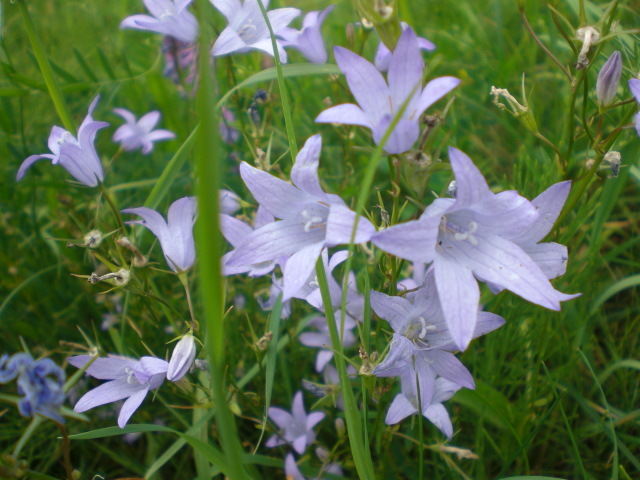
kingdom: Plantae
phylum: Tracheophyta
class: Magnoliopsida
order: Asterales
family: Campanulaceae
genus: Campanula
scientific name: Campanula rapunculus
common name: Rampion bellflower
